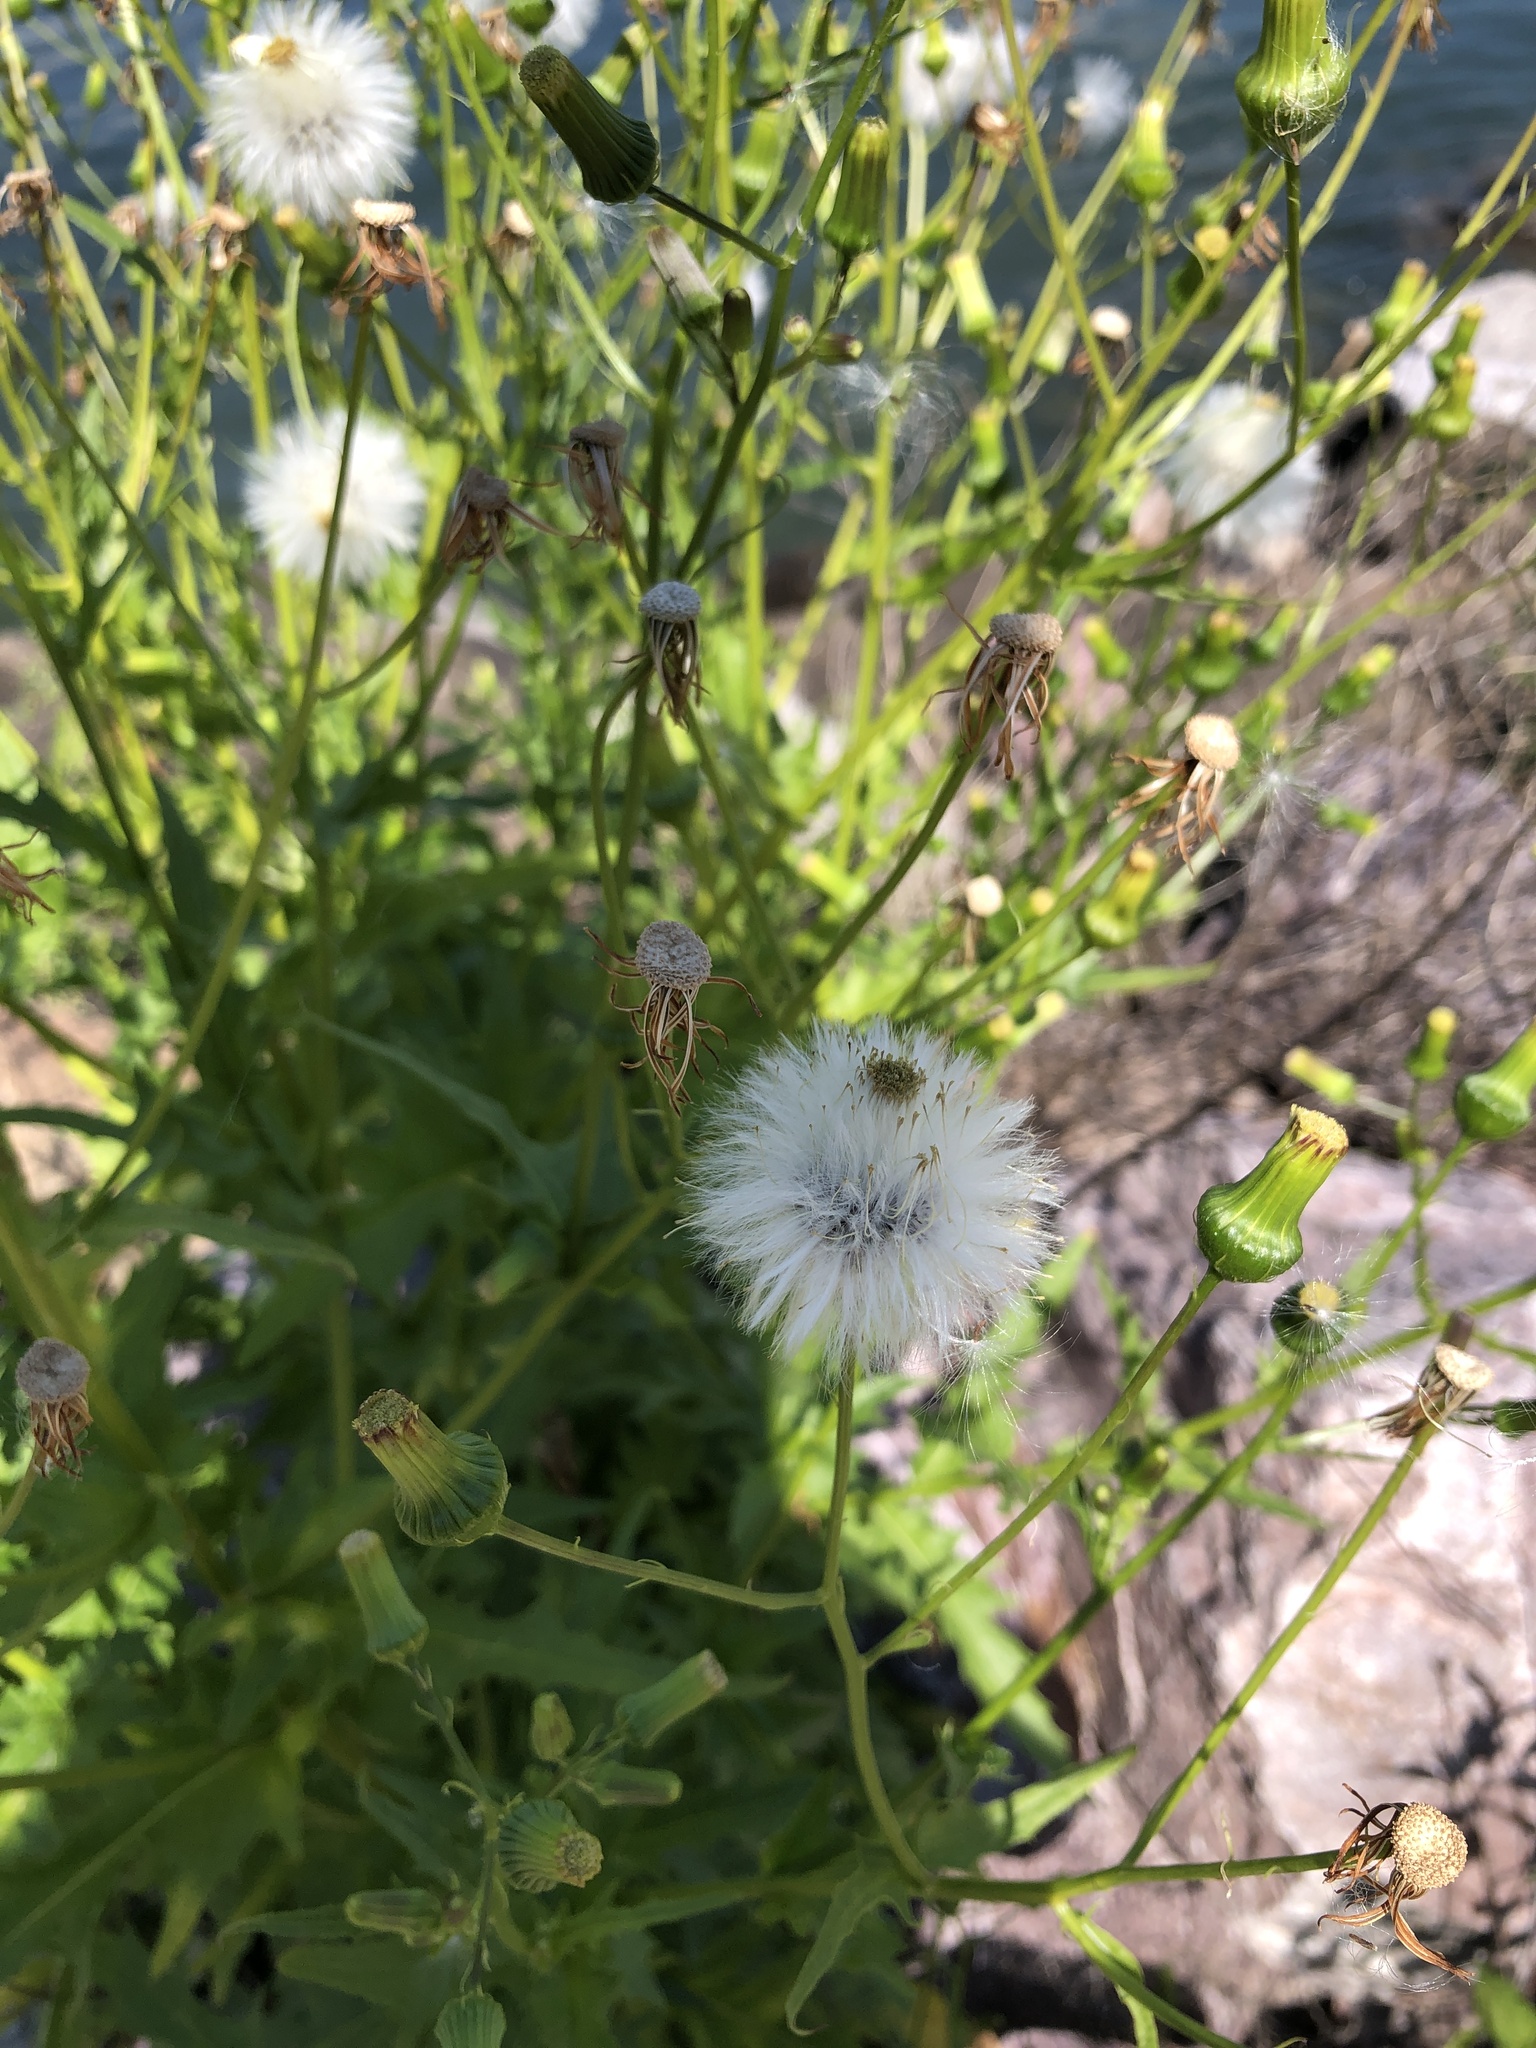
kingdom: Plantae
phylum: Tracheophyta
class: Magnoliopsida
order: Asterales
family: Asteraceae
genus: Erechtites
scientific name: Erechtites hieraciifolius
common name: American burnweed
